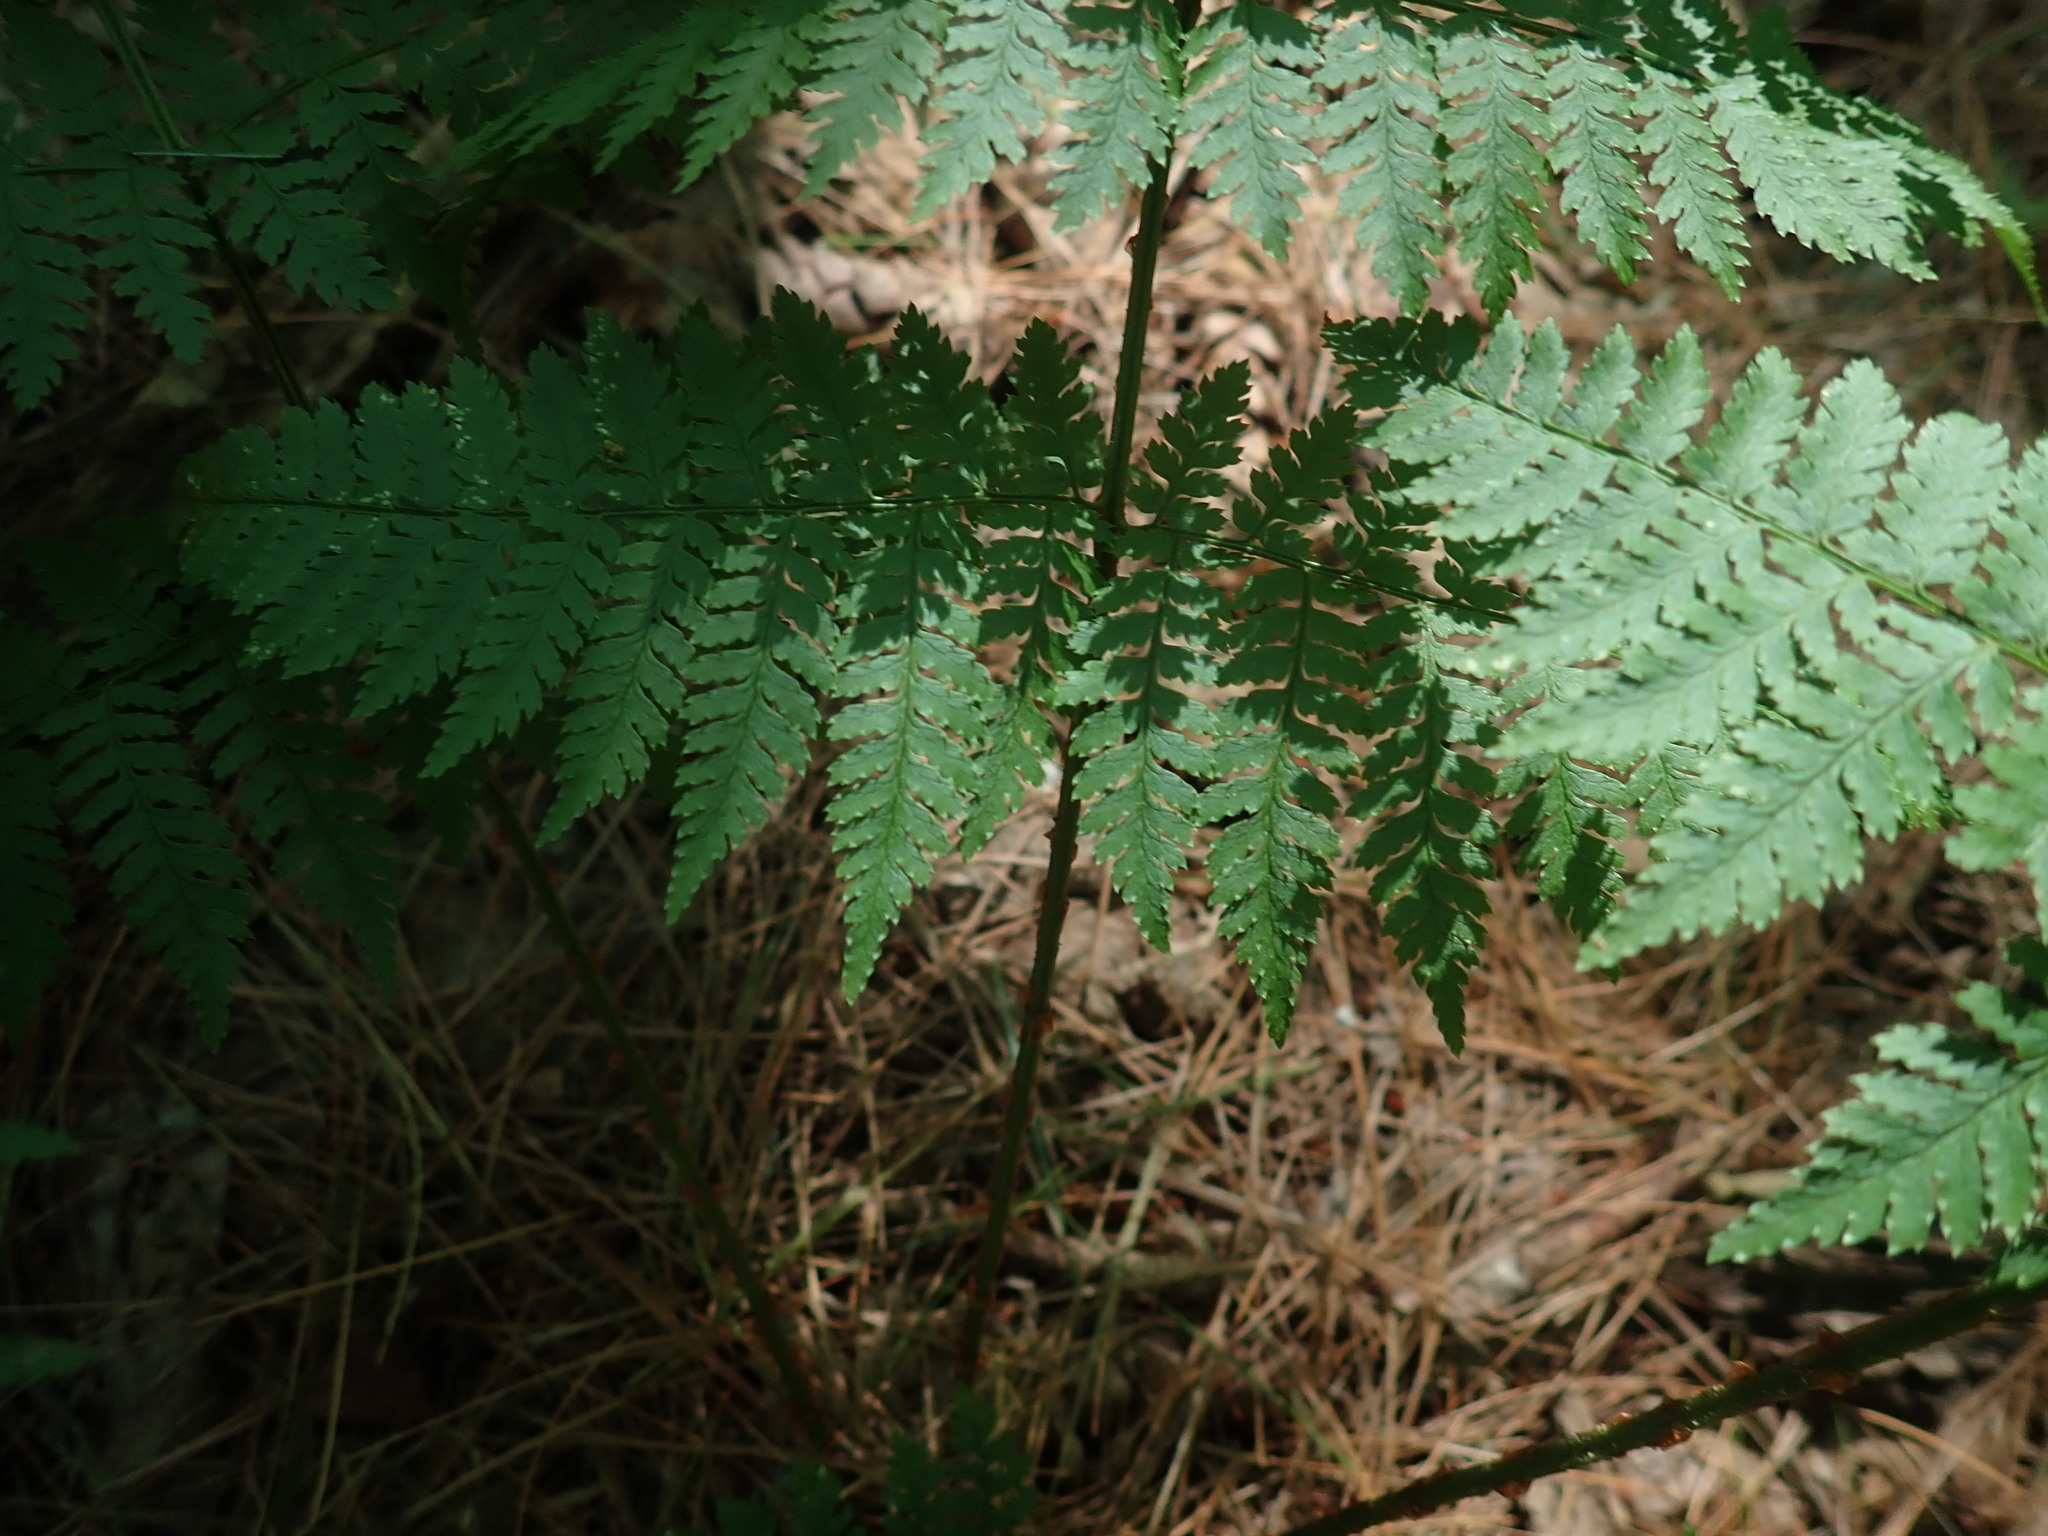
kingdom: Plantae
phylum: Tracheophyta
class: Polypodiopsida
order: Polypodiales
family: Dryopteridaceae
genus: Dryopteris
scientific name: Dryopteris intermedia
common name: Evergreen wood fern
